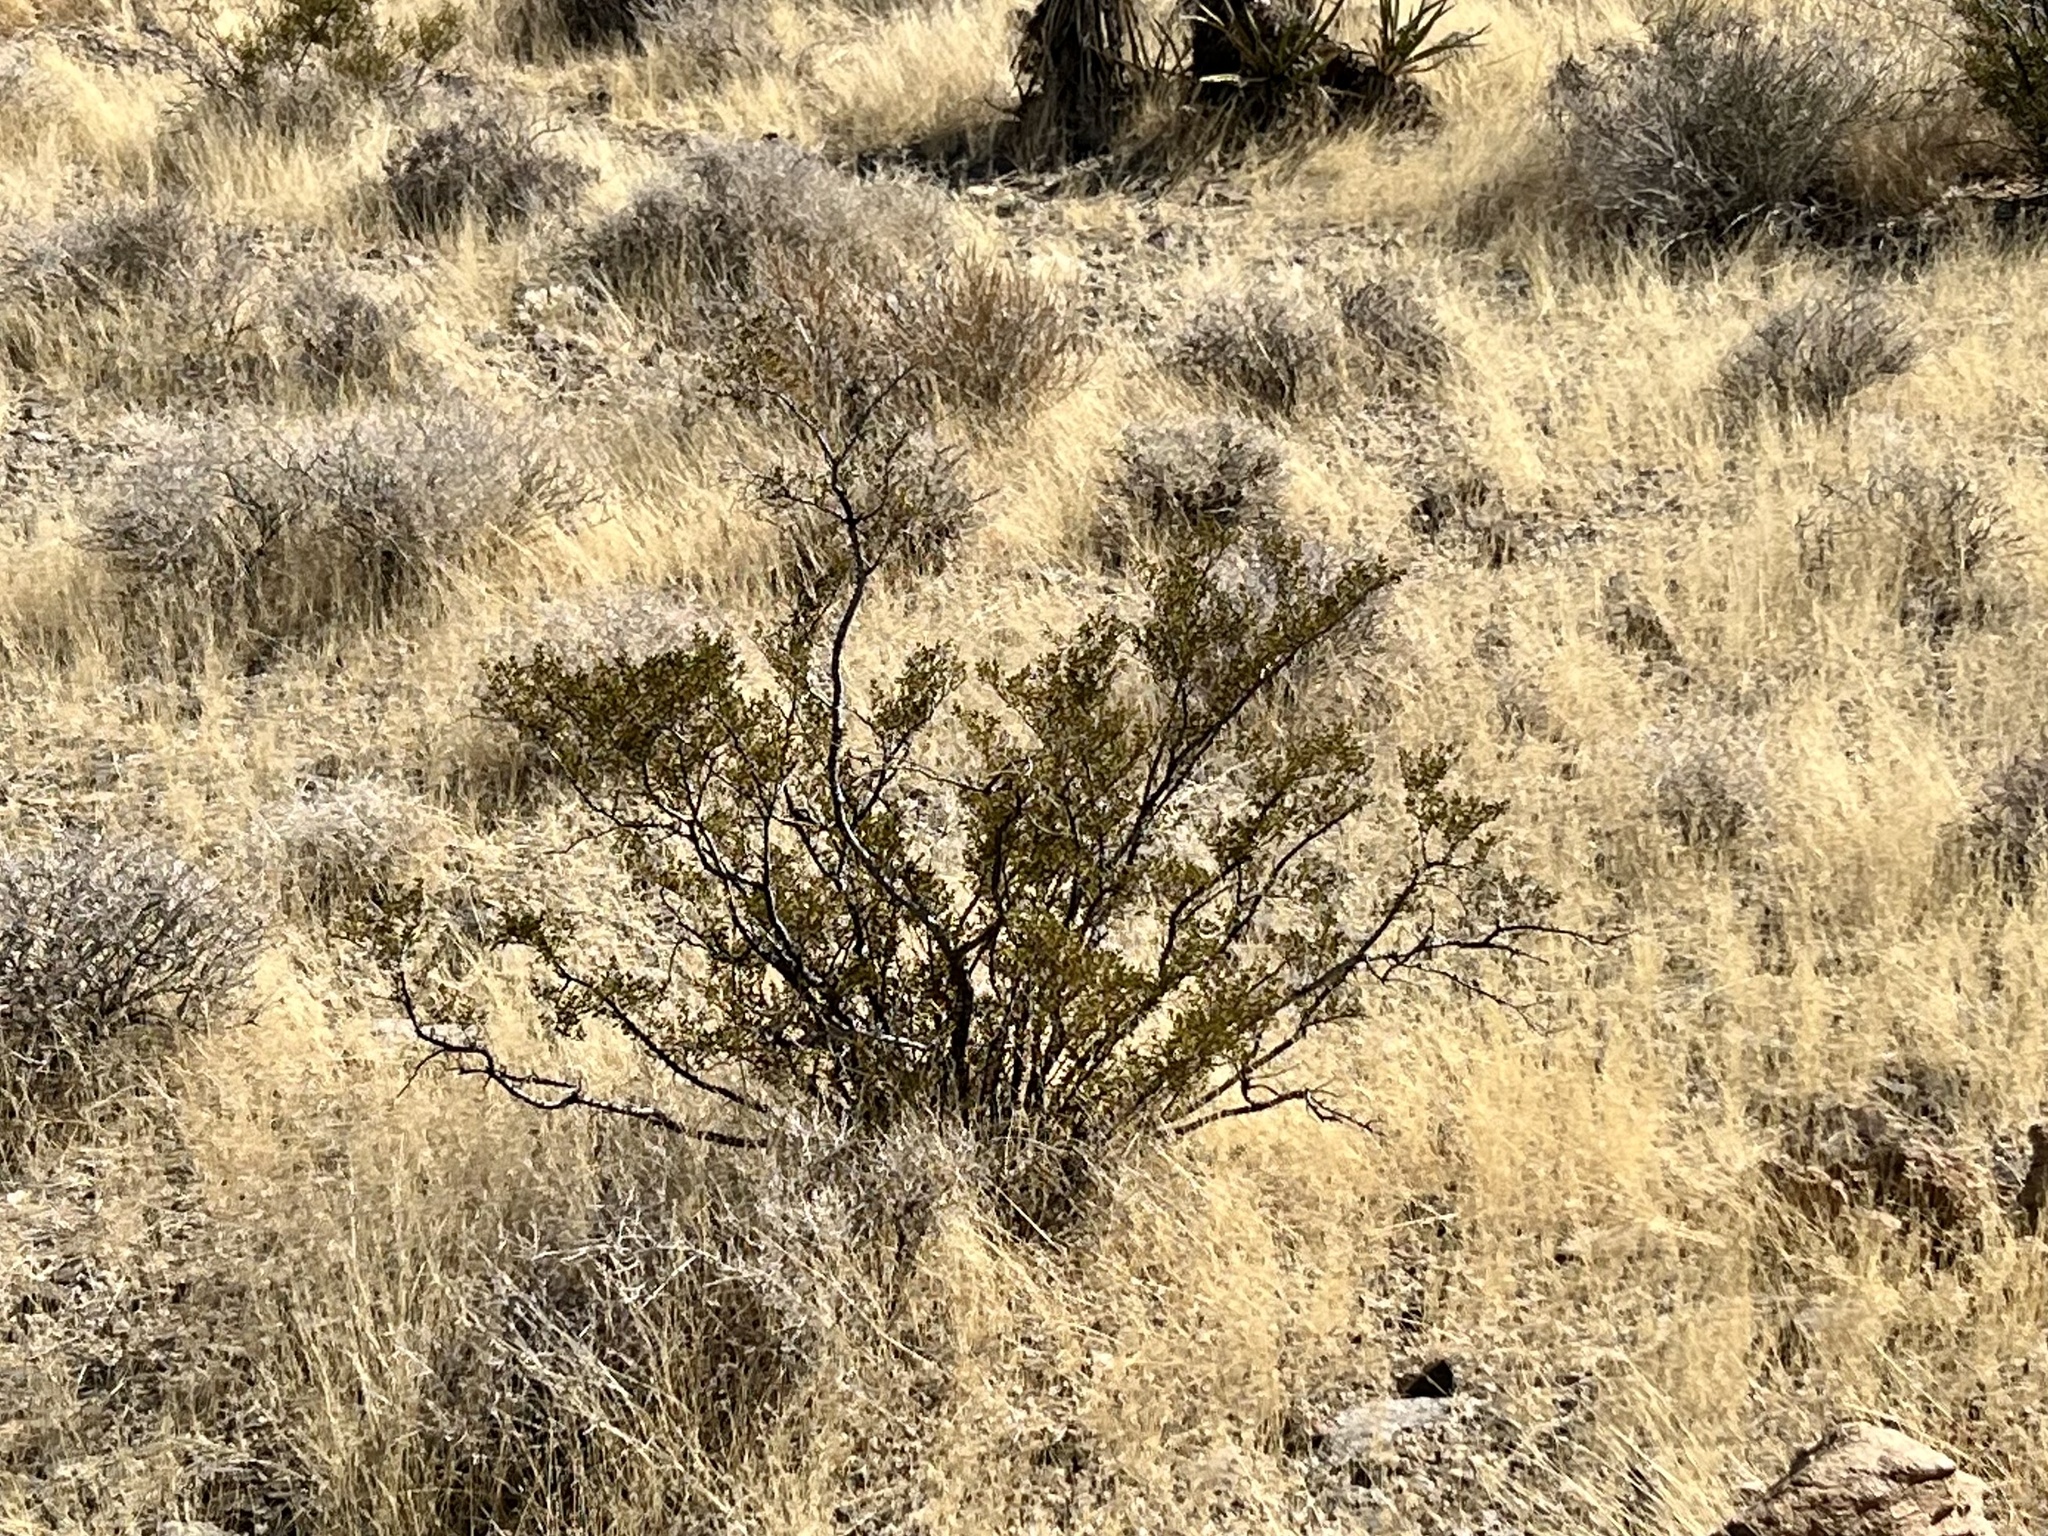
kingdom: Plantae
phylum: Tracheophyta
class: Magnoliopsida
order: Zygophyllales
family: Zygophyllaceae
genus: Larrea
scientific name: Larrea tridentata
